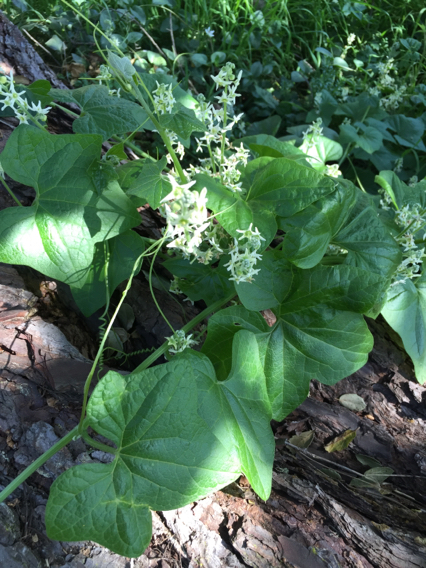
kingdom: Plantae
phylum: Tracheophyta
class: Magnoliopsida
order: Cucurbitales
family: Cucurbitaceae
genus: Marah
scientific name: Marah fabacea
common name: California manroot
